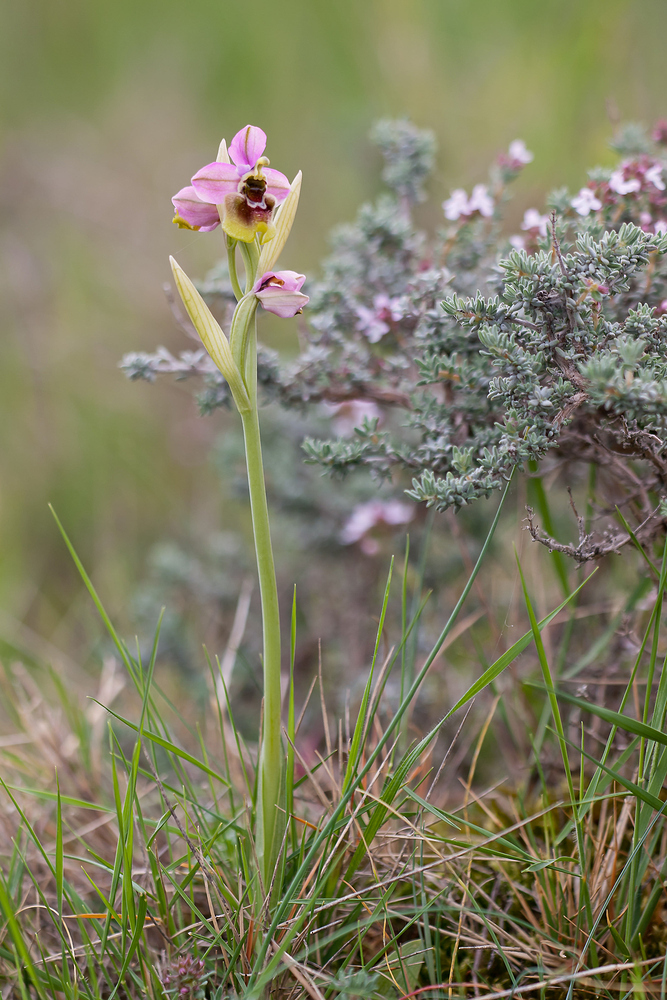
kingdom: Plantae
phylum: Tracheophyta
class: Liliopsida
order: Asparagales
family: Orchidaceae
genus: Ophrys
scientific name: Ophrys tenthredinifera
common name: Sawfly orchid
